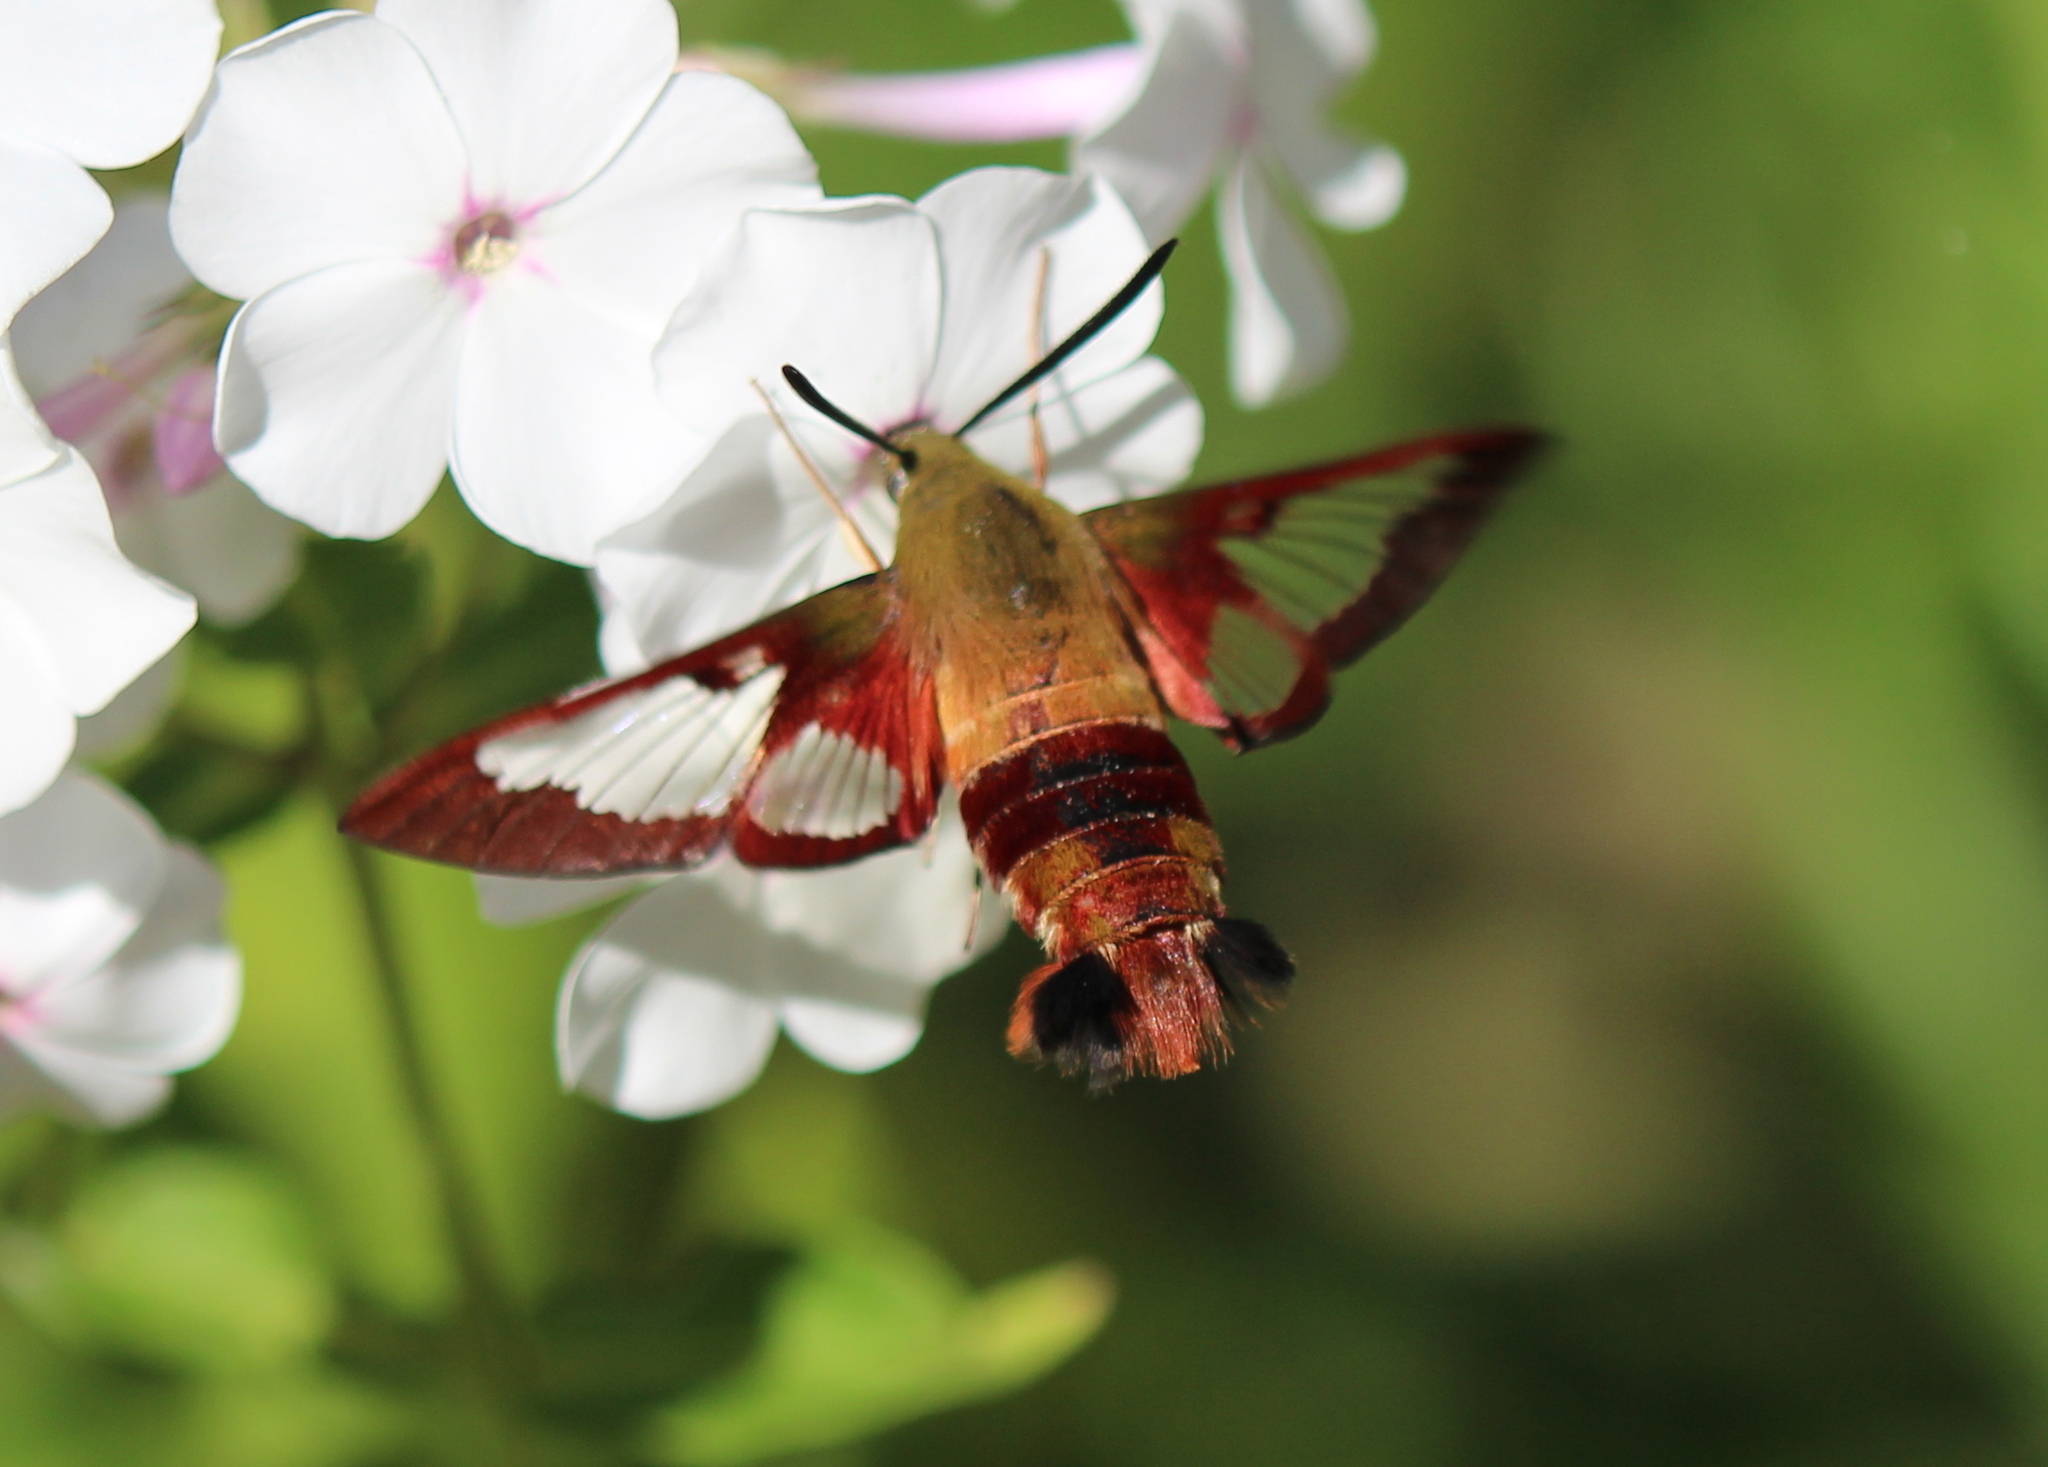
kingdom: Animalia
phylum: Arthropoda
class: Insecta
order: Lepidoptera
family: Sphingidae
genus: Hemaris
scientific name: Hemaris thysbe
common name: Common clear-wing
